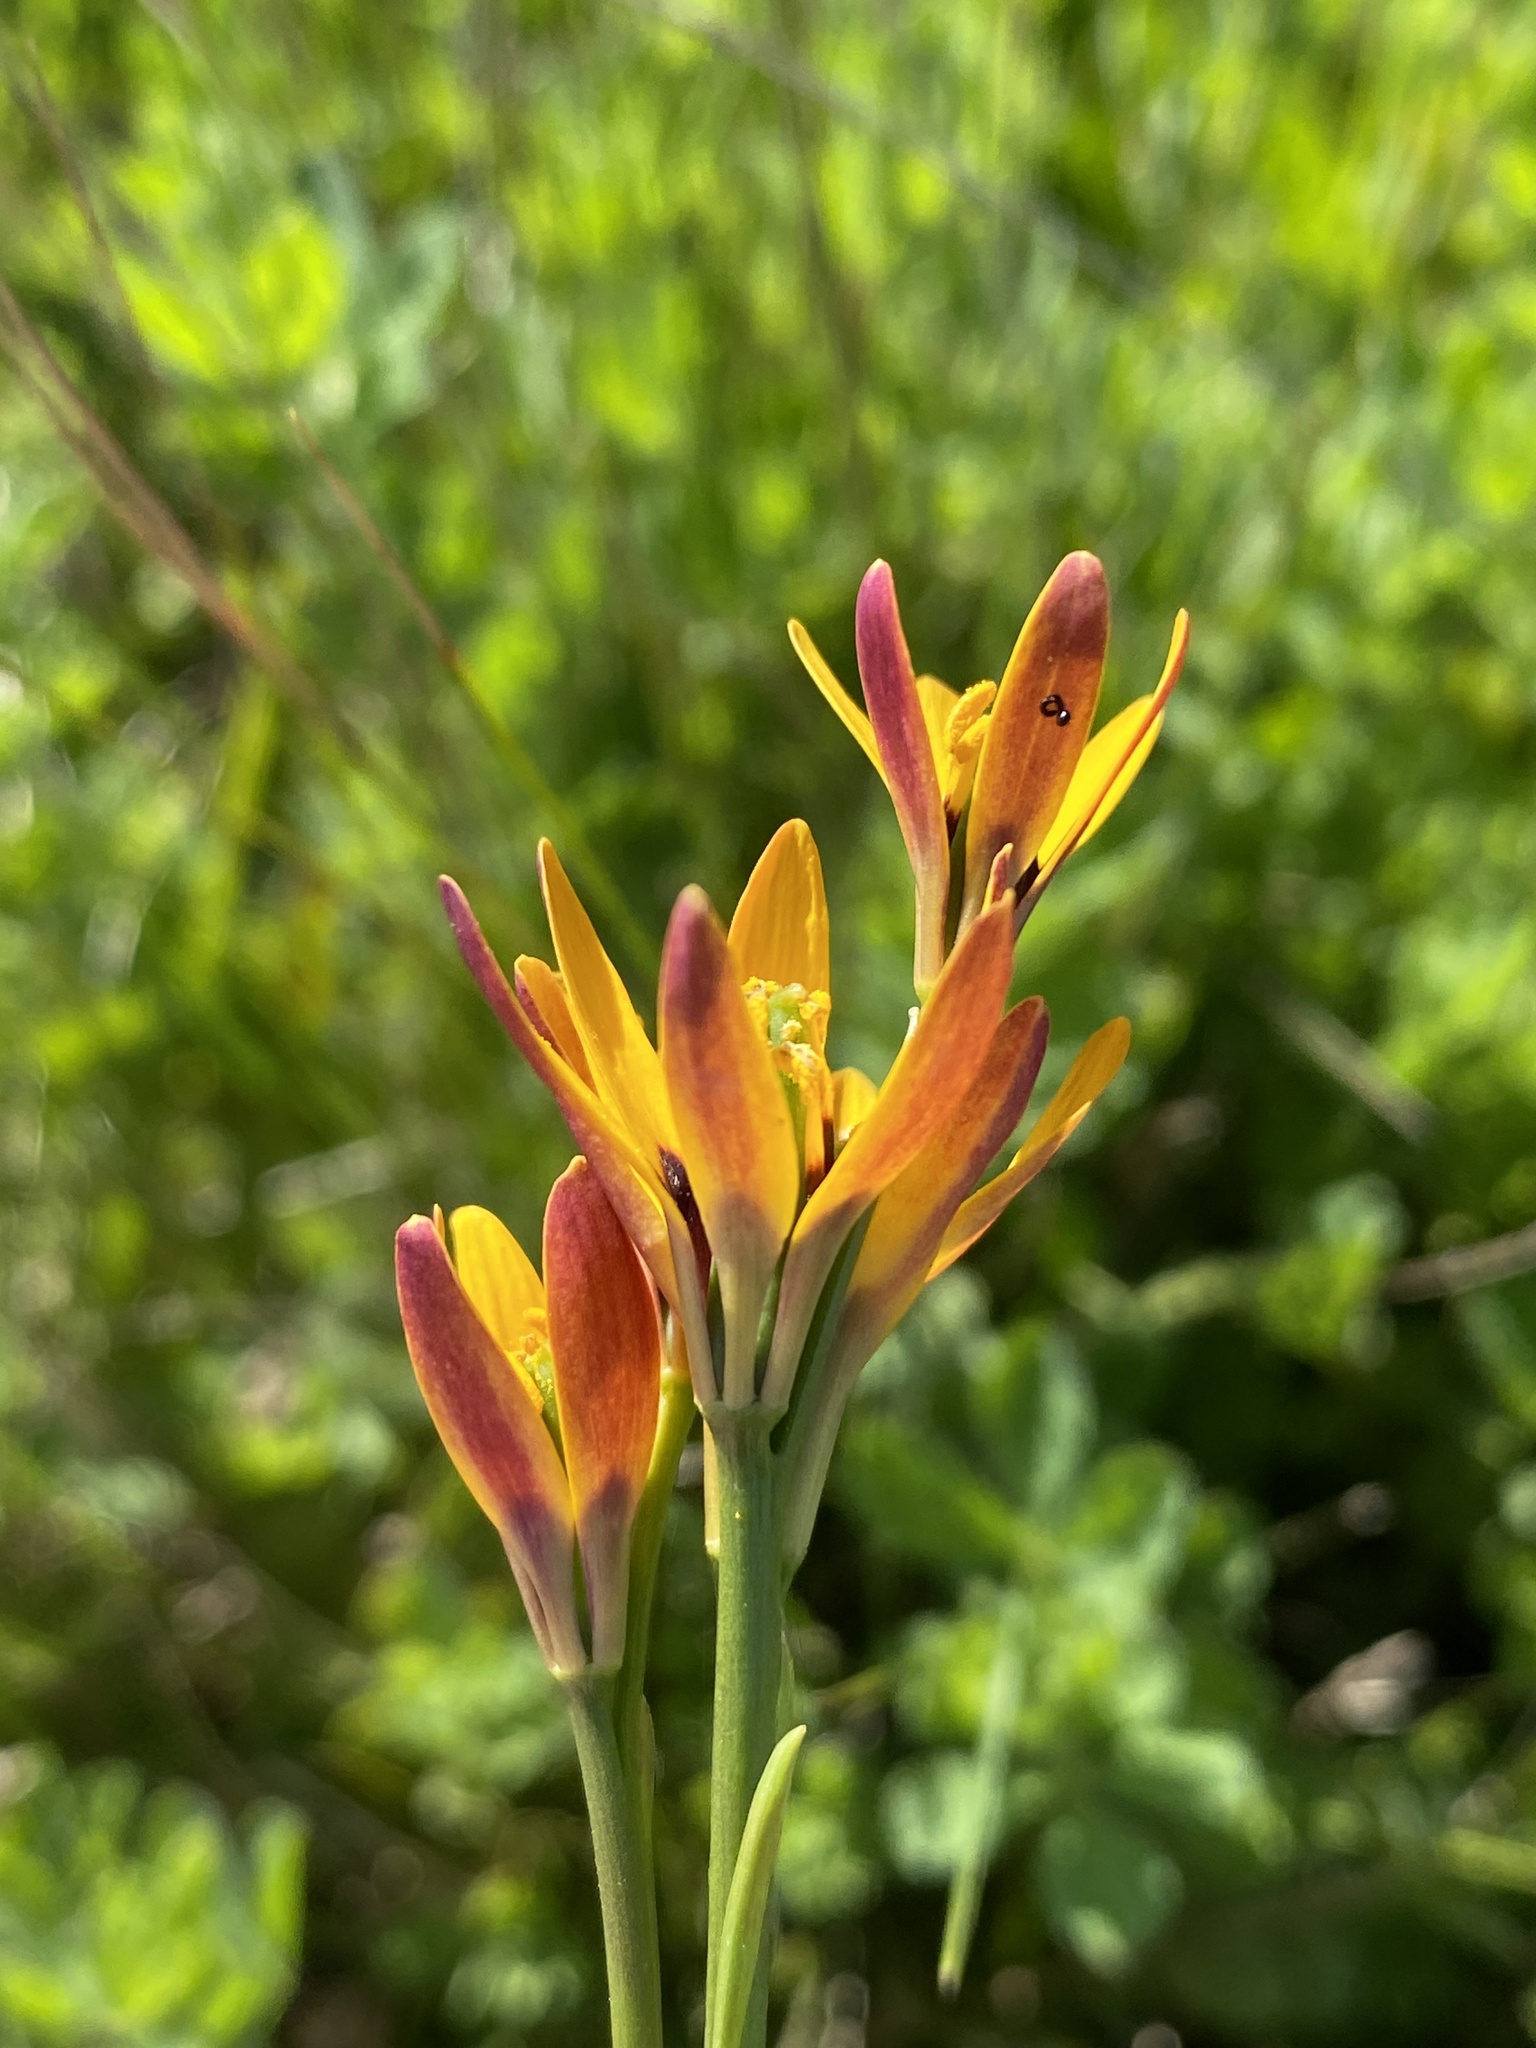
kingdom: Plantae
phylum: Tracheophyta
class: Liliopsida
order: Liliales
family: Colchicaceae
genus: Baeometra
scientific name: Baeometra uniflora
